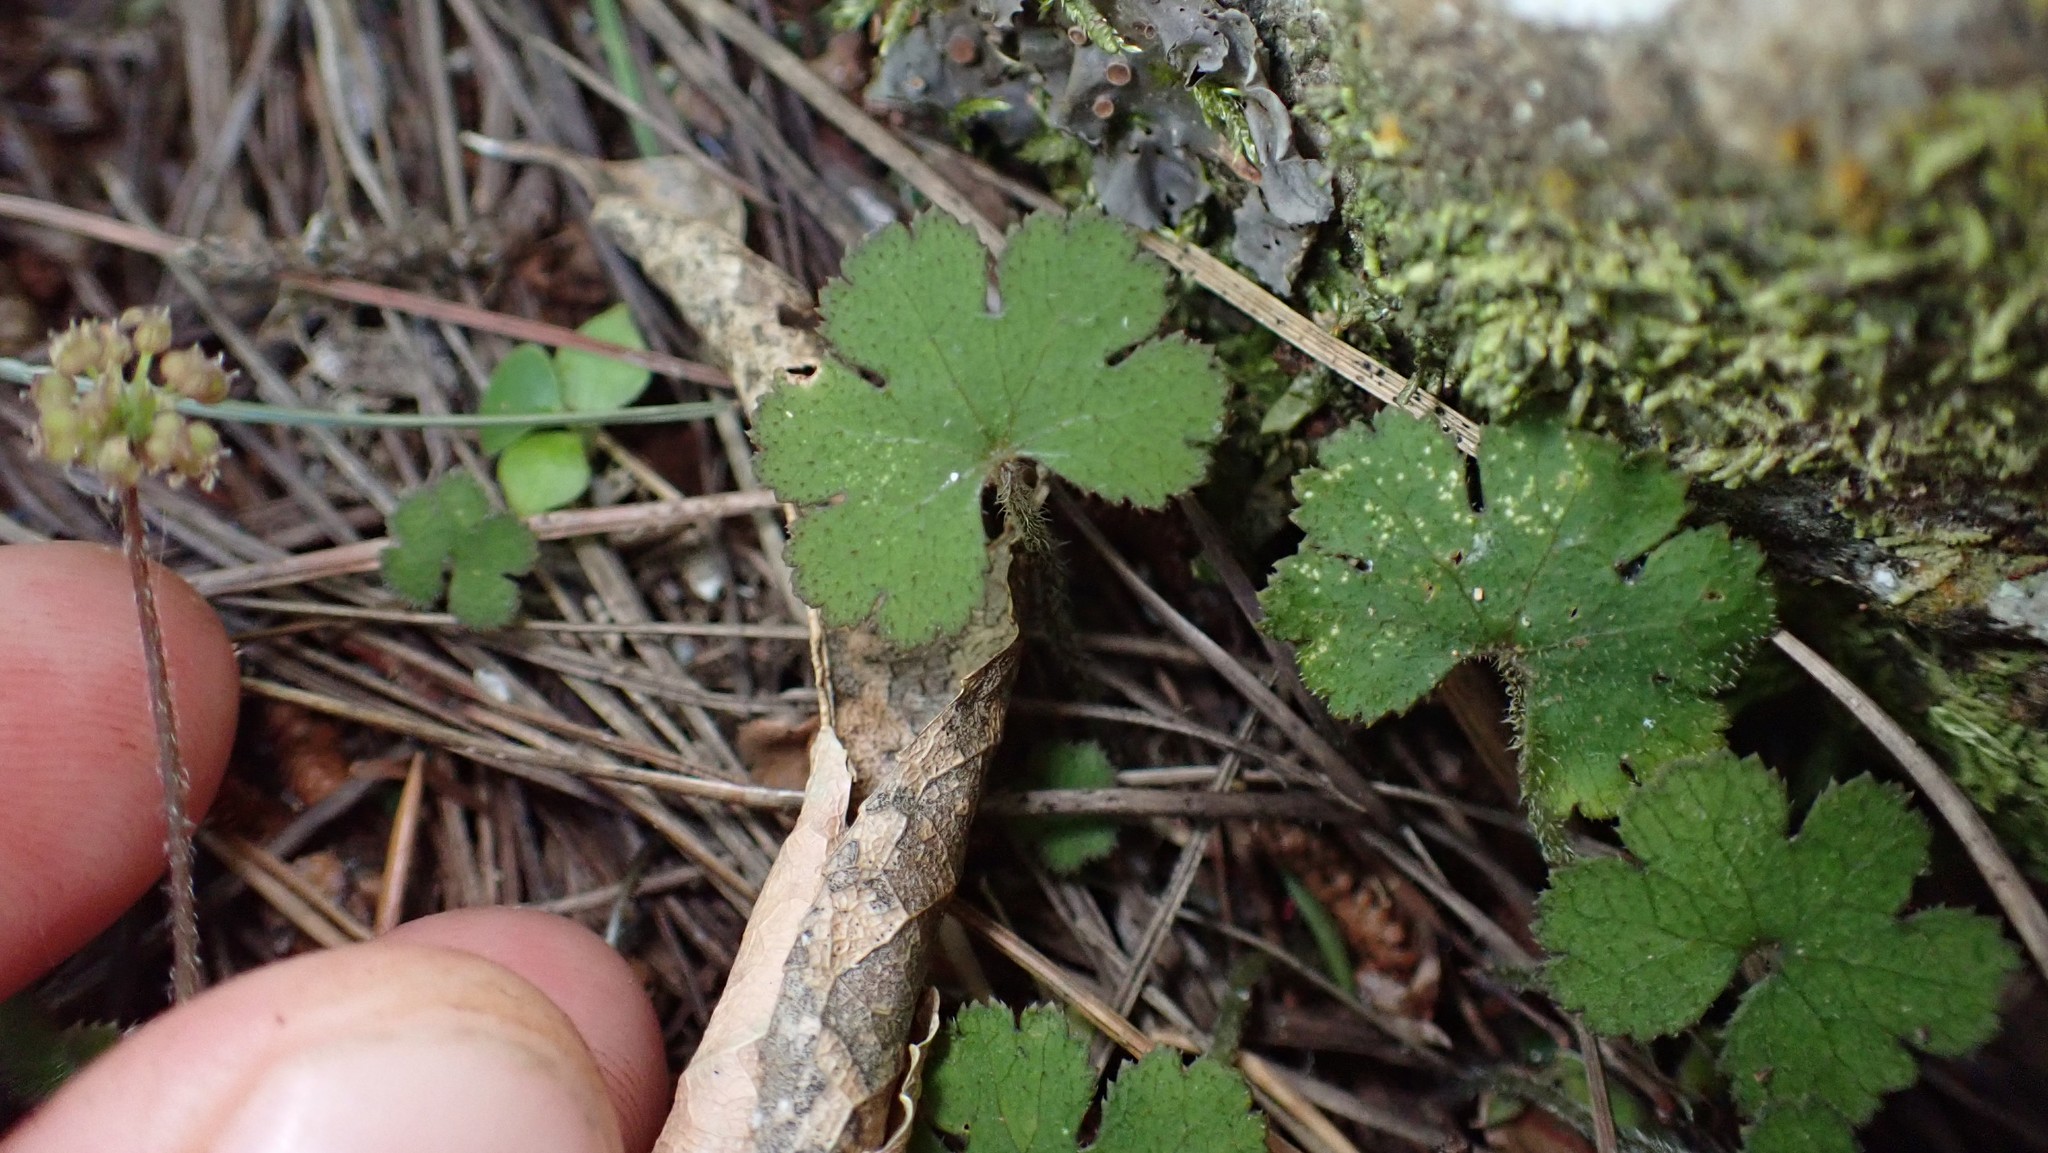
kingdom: Plantae
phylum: Tracheophyta
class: Magnoliopsida
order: Apiales
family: Araliaceae
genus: Hydrocotyle
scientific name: Hydrocotyle elongata
